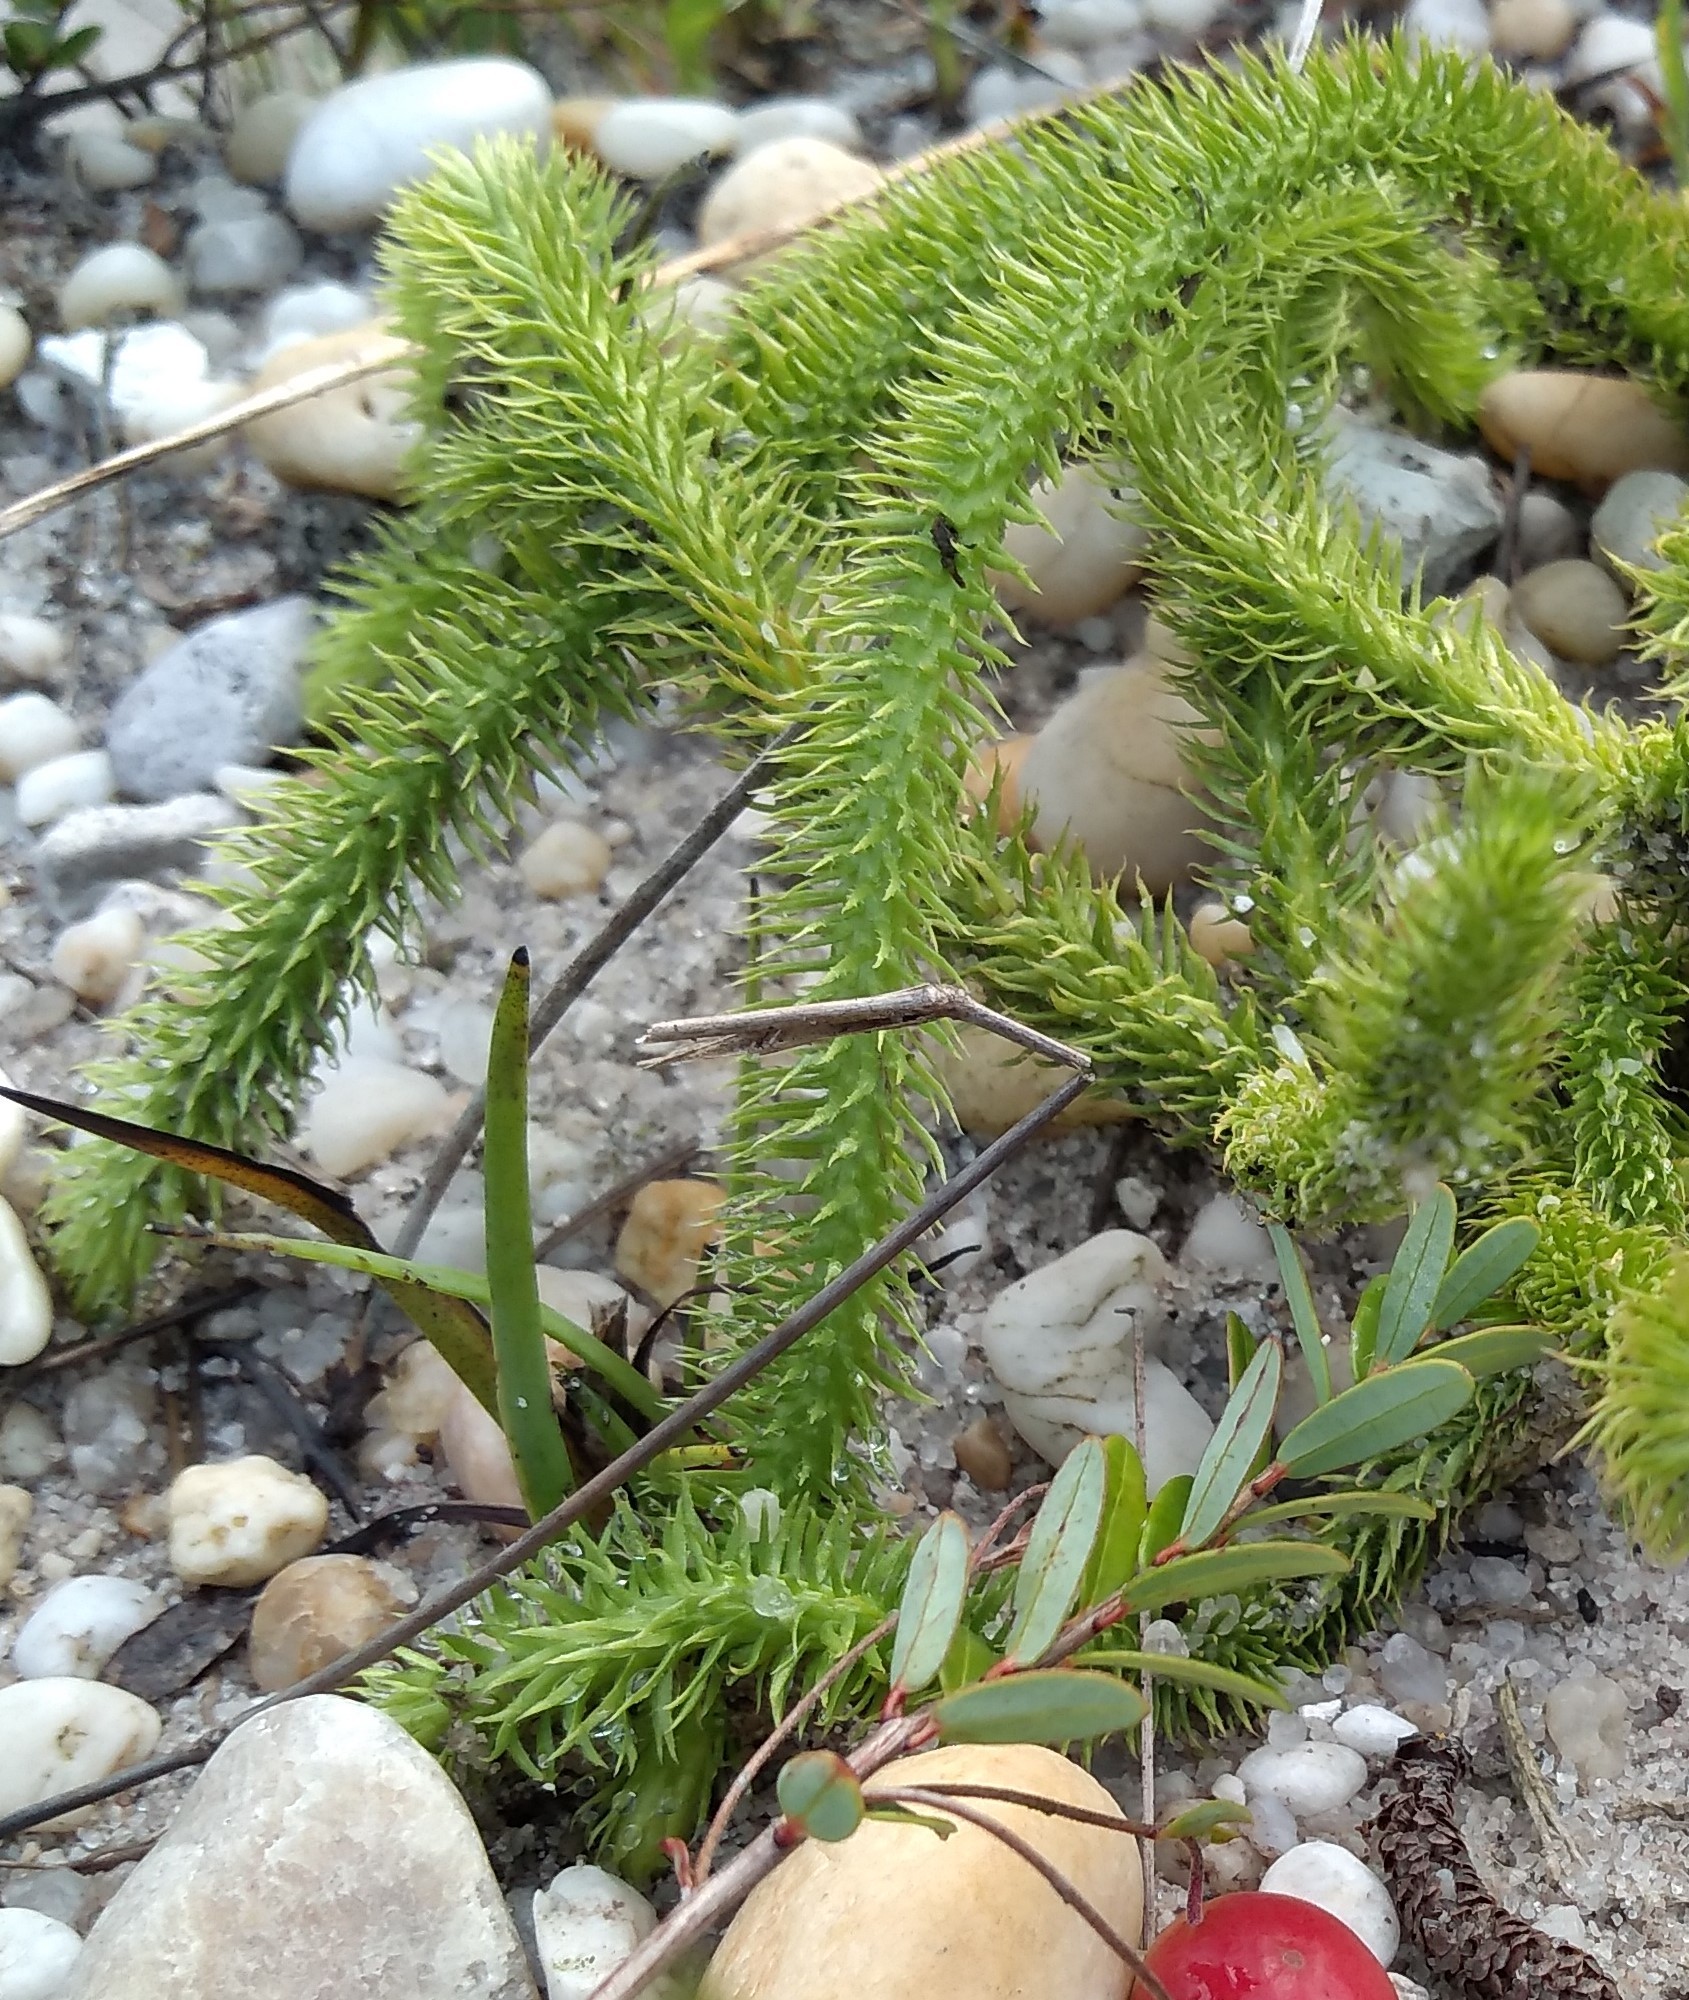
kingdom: Plantae
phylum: Tracheophyta
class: Lycopodiopsida
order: Lycopodiales
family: Lycopodiaceae
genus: Lycopodiella
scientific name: Lycopodiella alopecuroides
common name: Foxtail clubmoss
